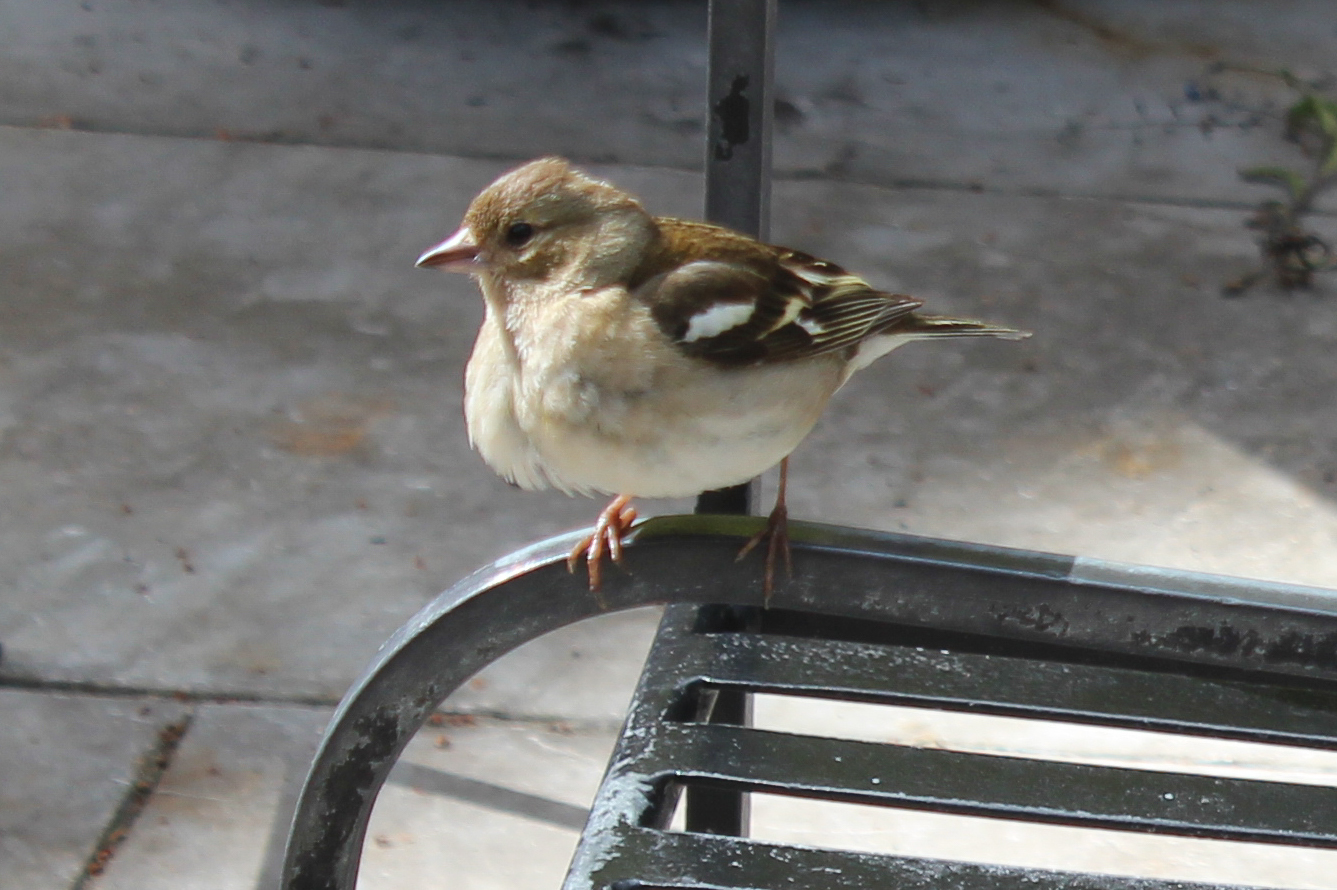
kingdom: Animalia
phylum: Chordata
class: Aves
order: Passeriformes
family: Fringillidae
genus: Fringilla
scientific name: Fringilla coelebs
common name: Common chaffinch
